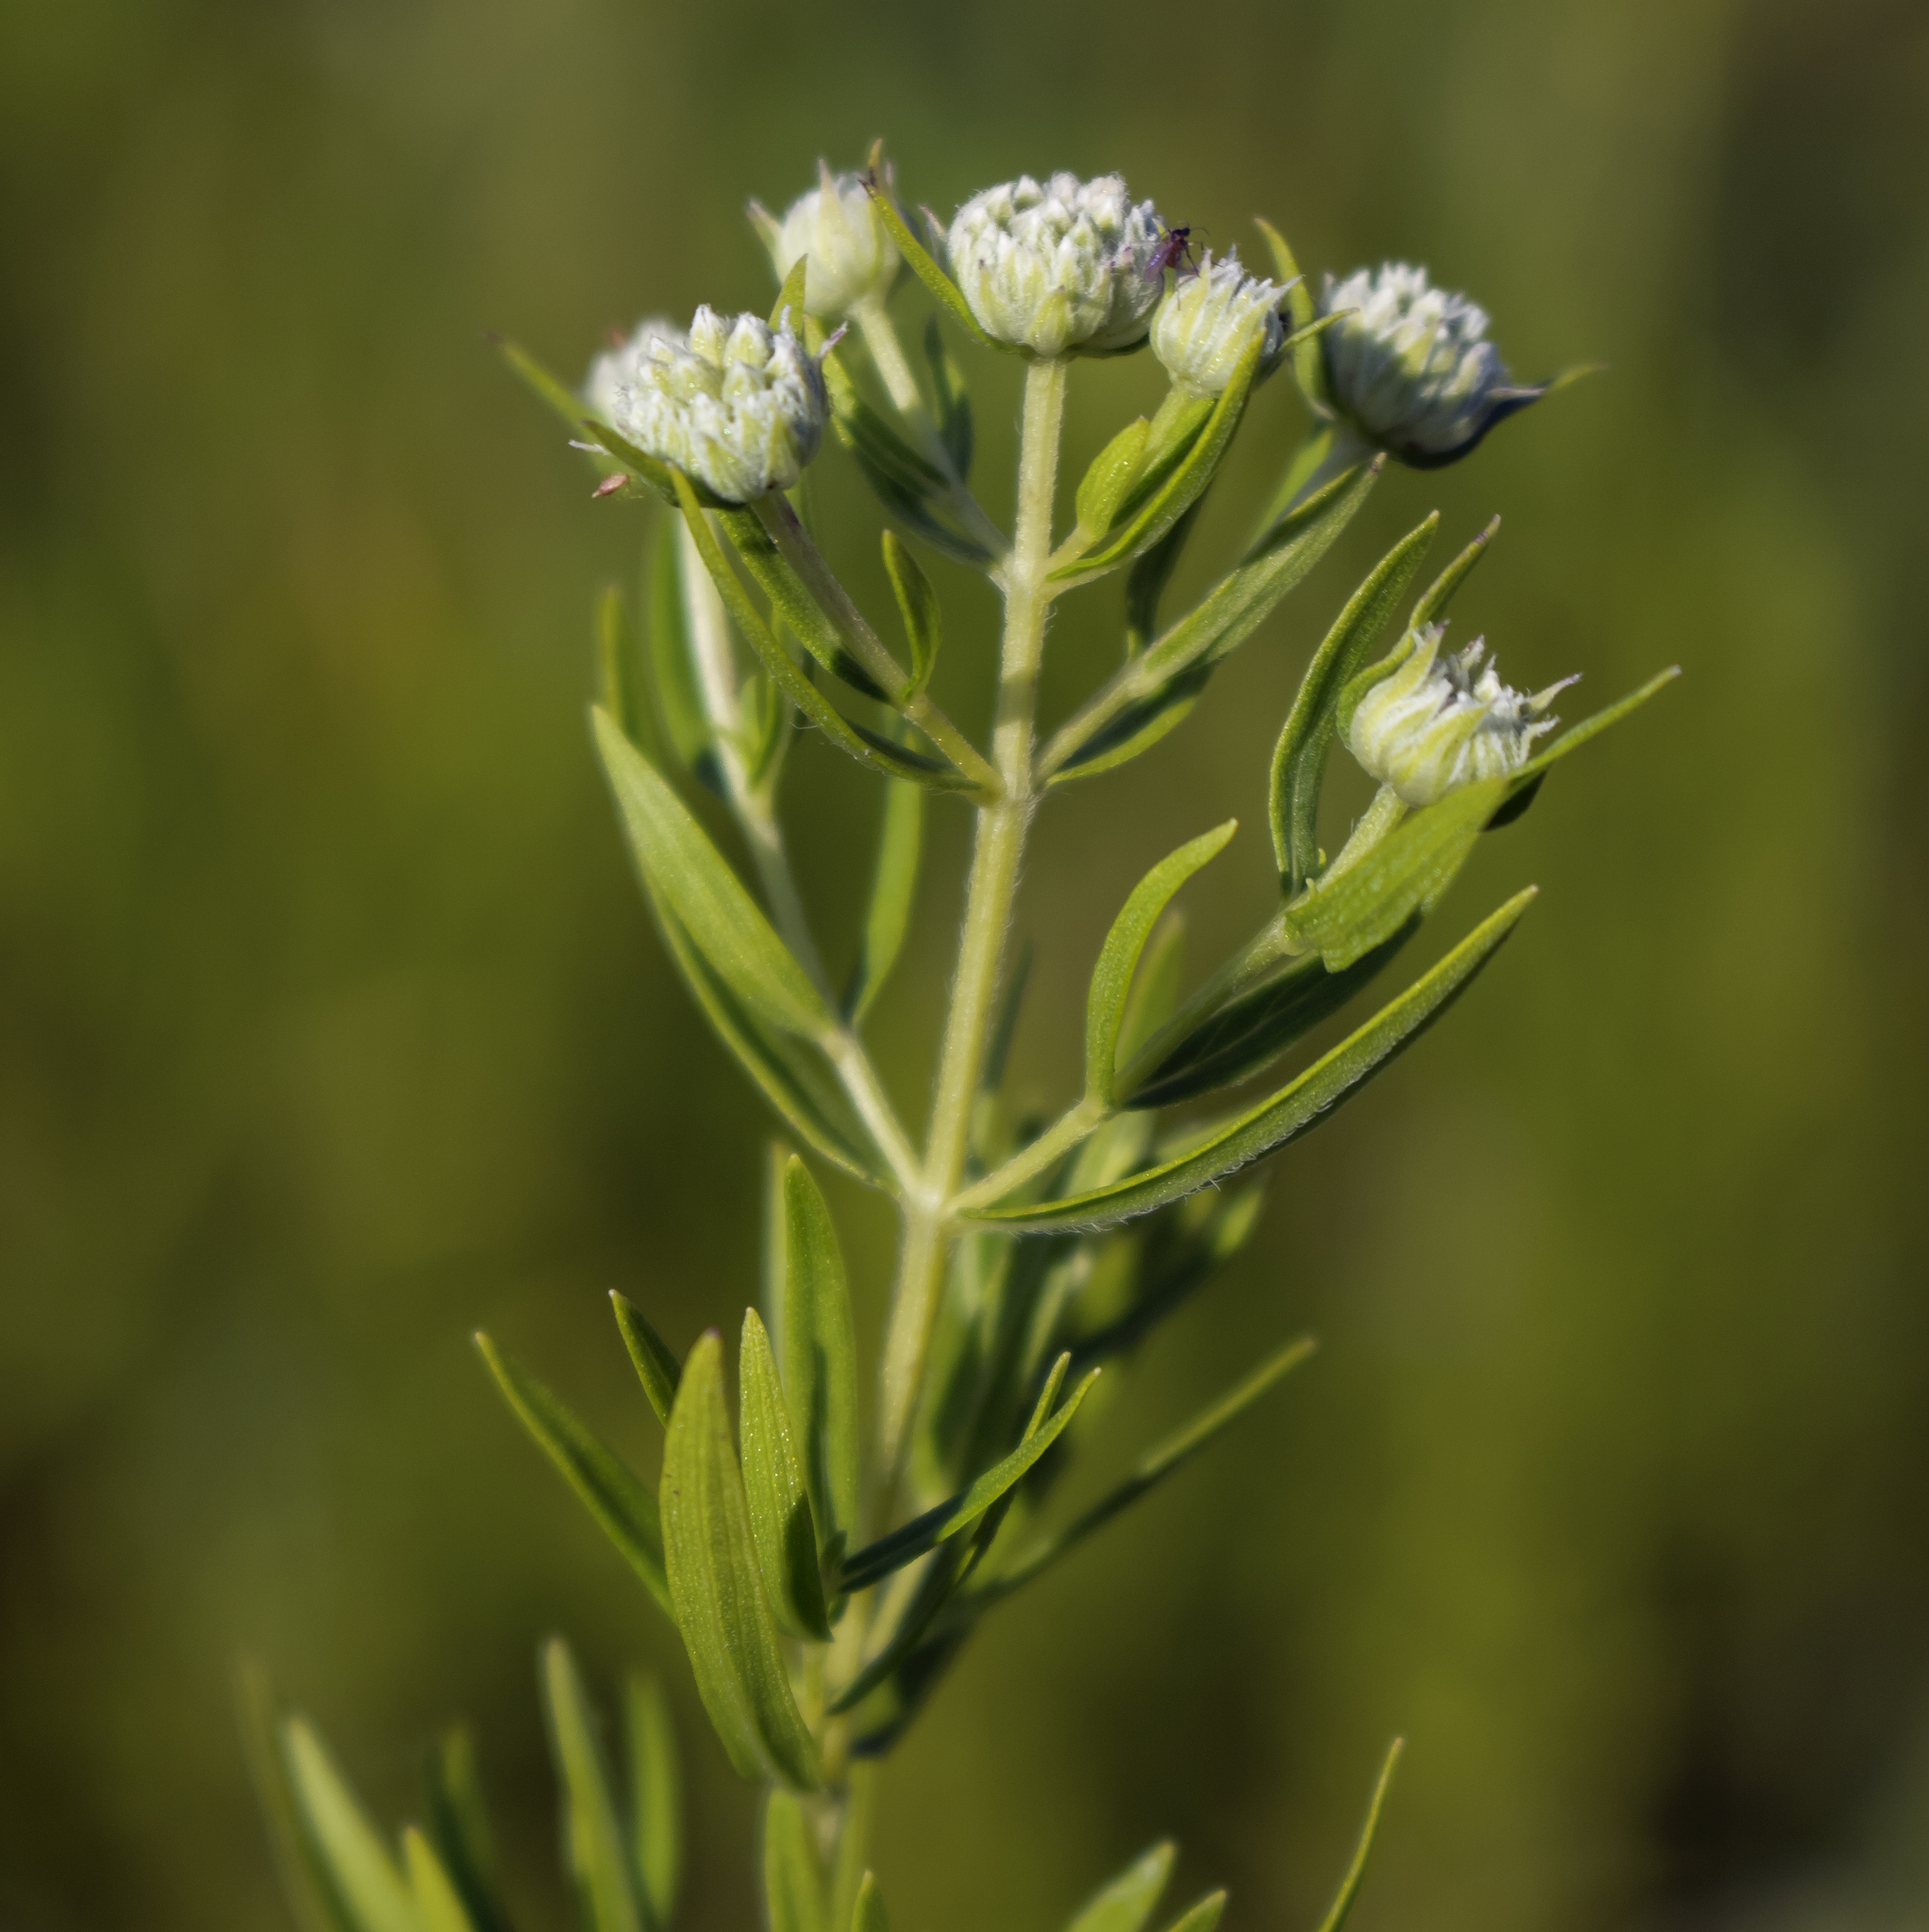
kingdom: Plantae
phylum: Tracheophyta
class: Magnoliopsida
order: Lamiales
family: Lamiaceae
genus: Pycnanthemum
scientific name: Pycnanthemum virginianum
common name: Virginia mountain-mint
